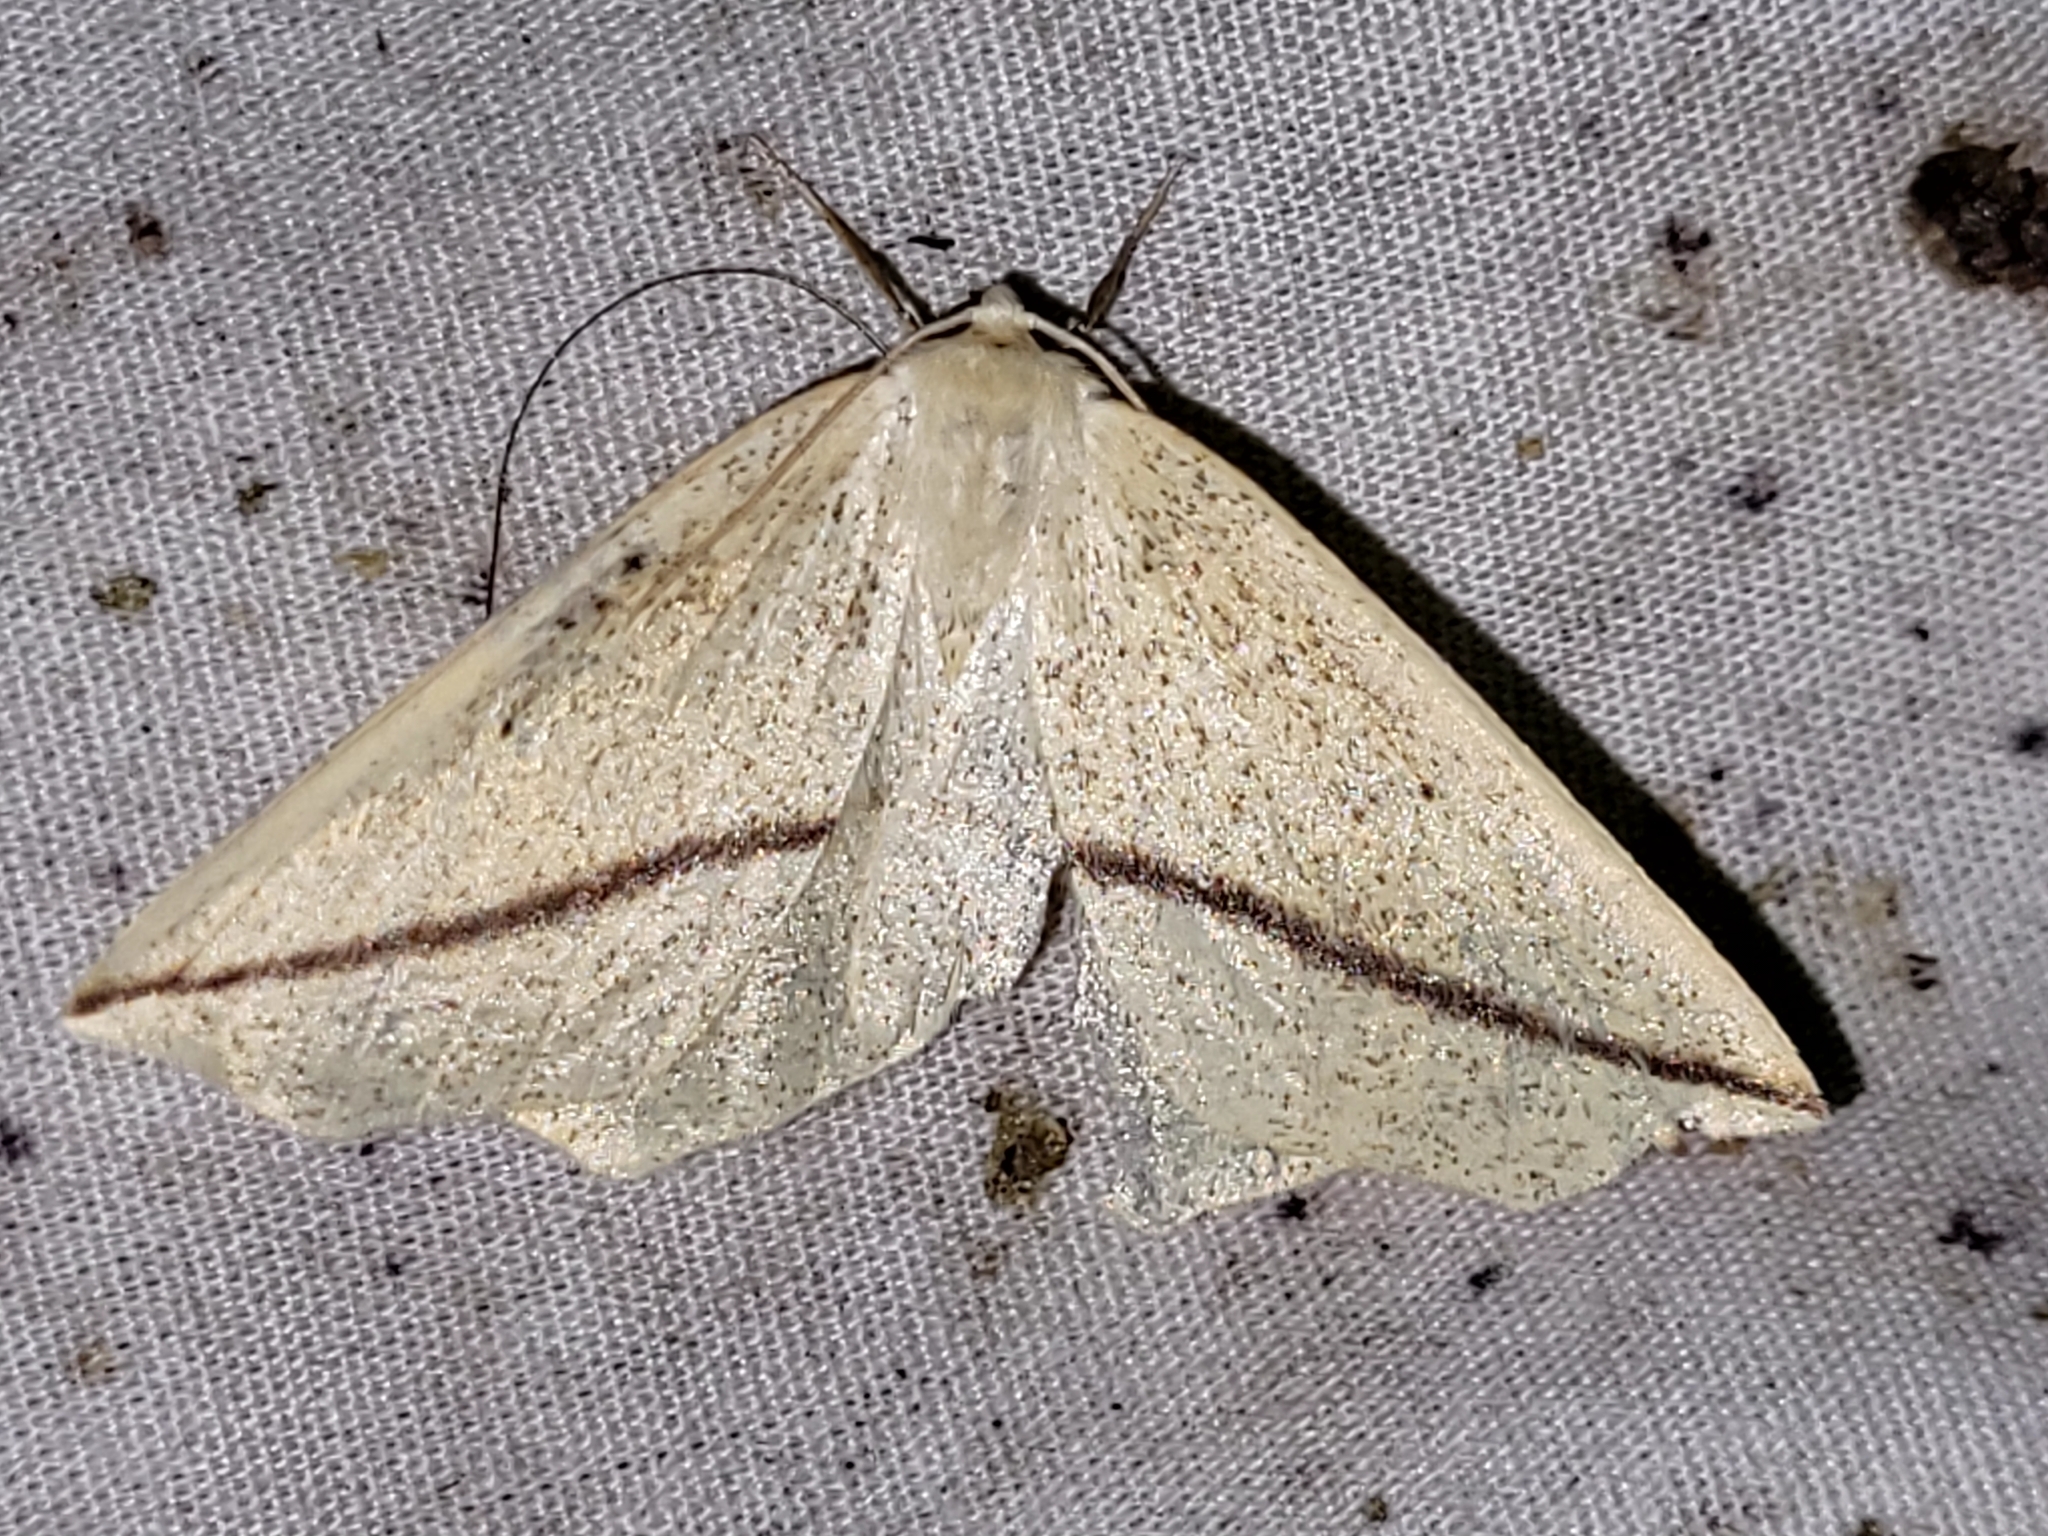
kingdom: Animalia
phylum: Arthropoda
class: Insecta
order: Lepidoptera
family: Geometridae
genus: Tetracis
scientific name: Tetracis crocallata
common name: Yellow slant-line
